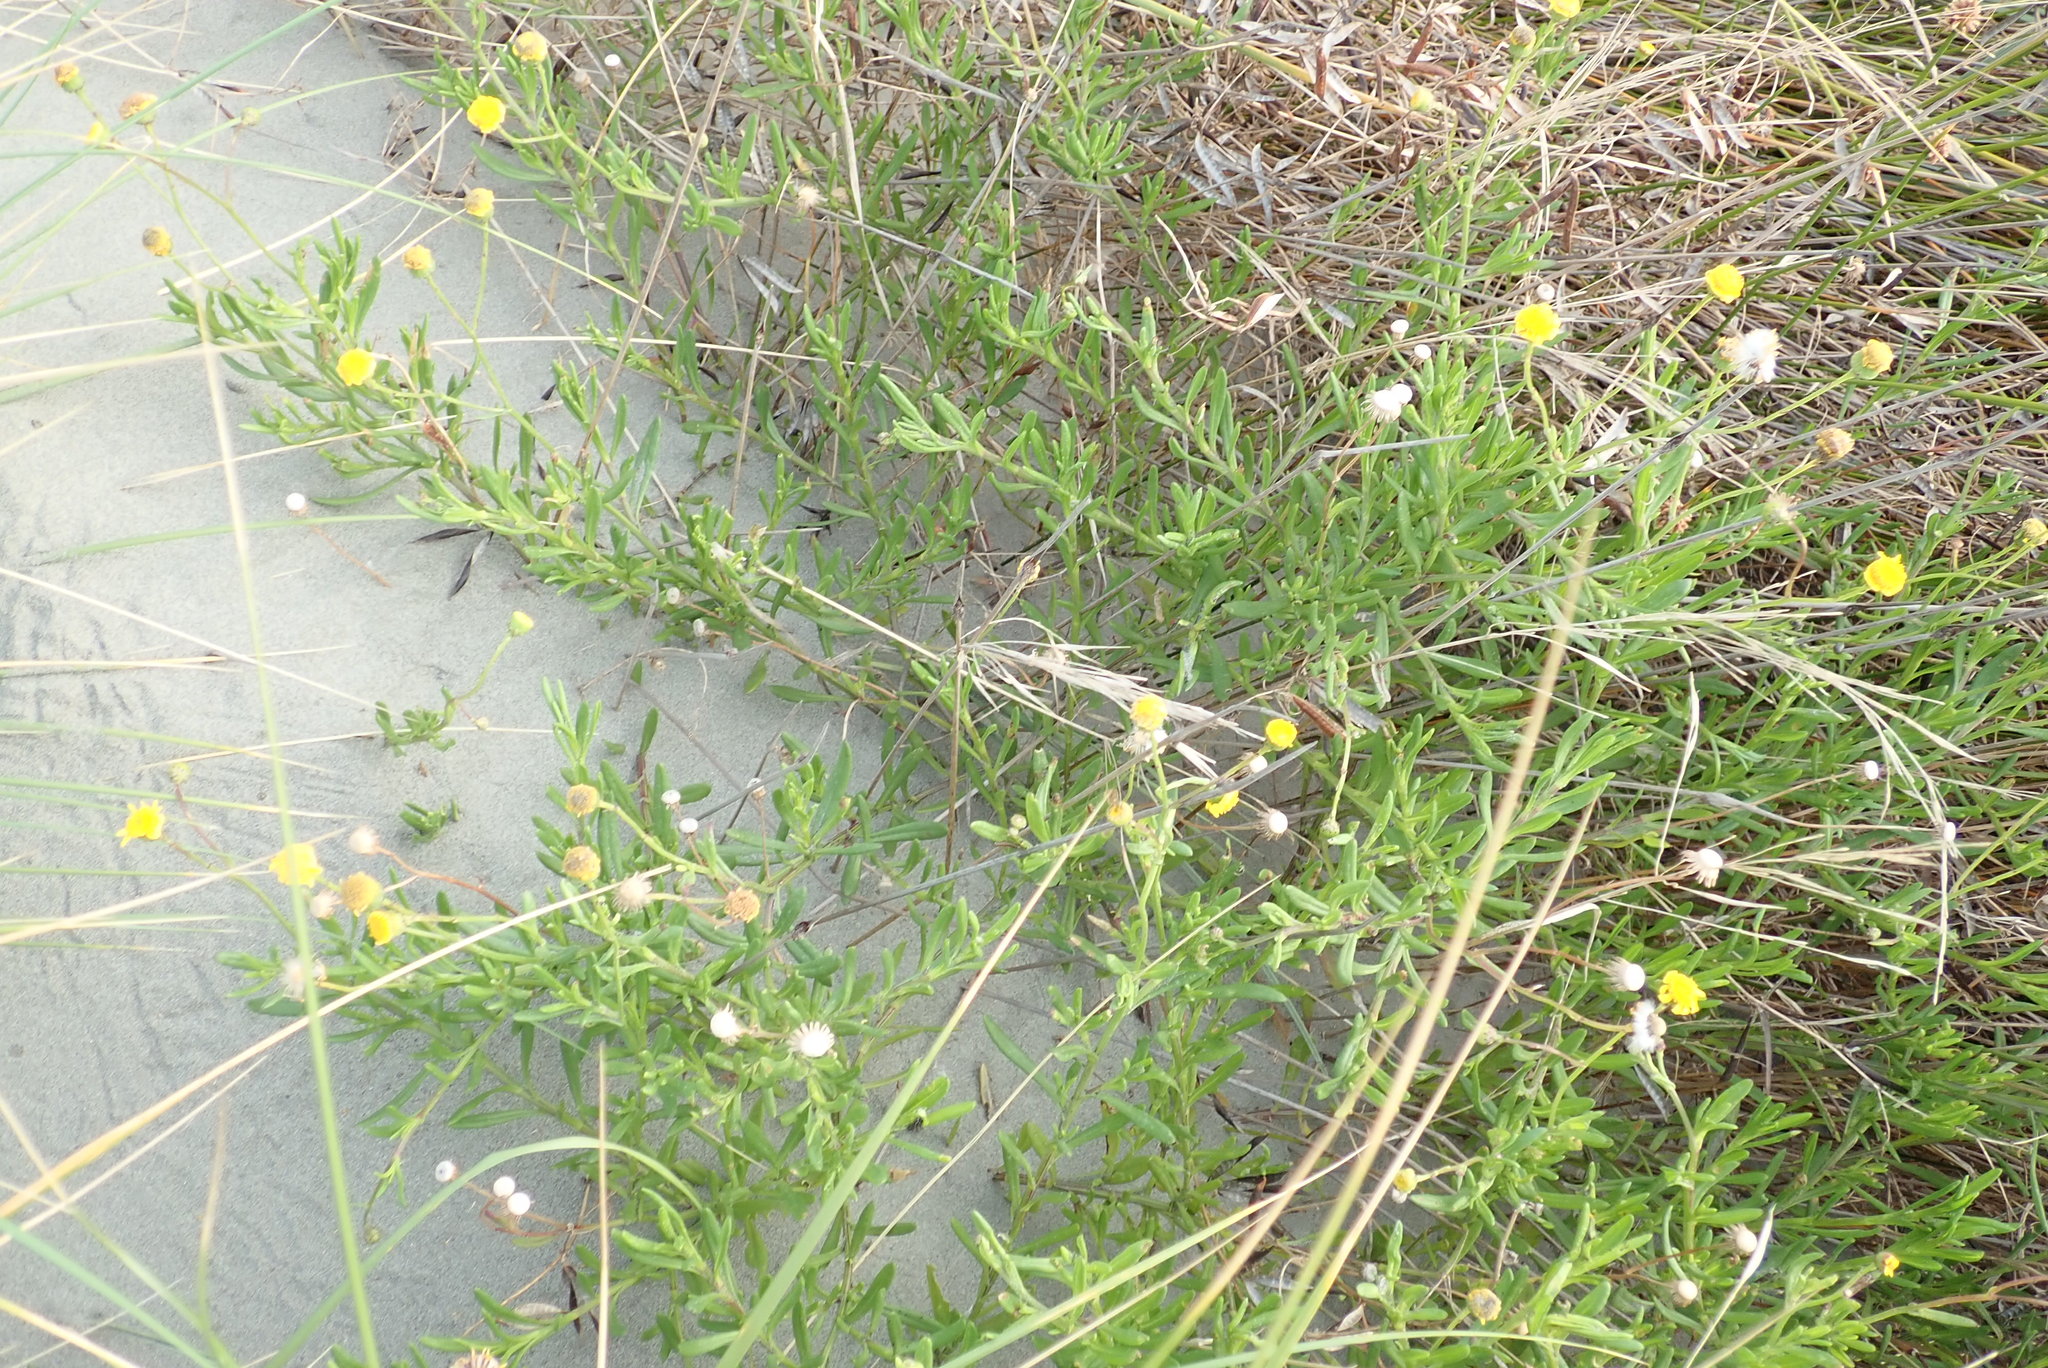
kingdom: Plantae
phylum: Tracheophyta
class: Magnoliopsida
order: Asterales
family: Asteraceae
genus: Senecio
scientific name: Senecio skirrhodon
